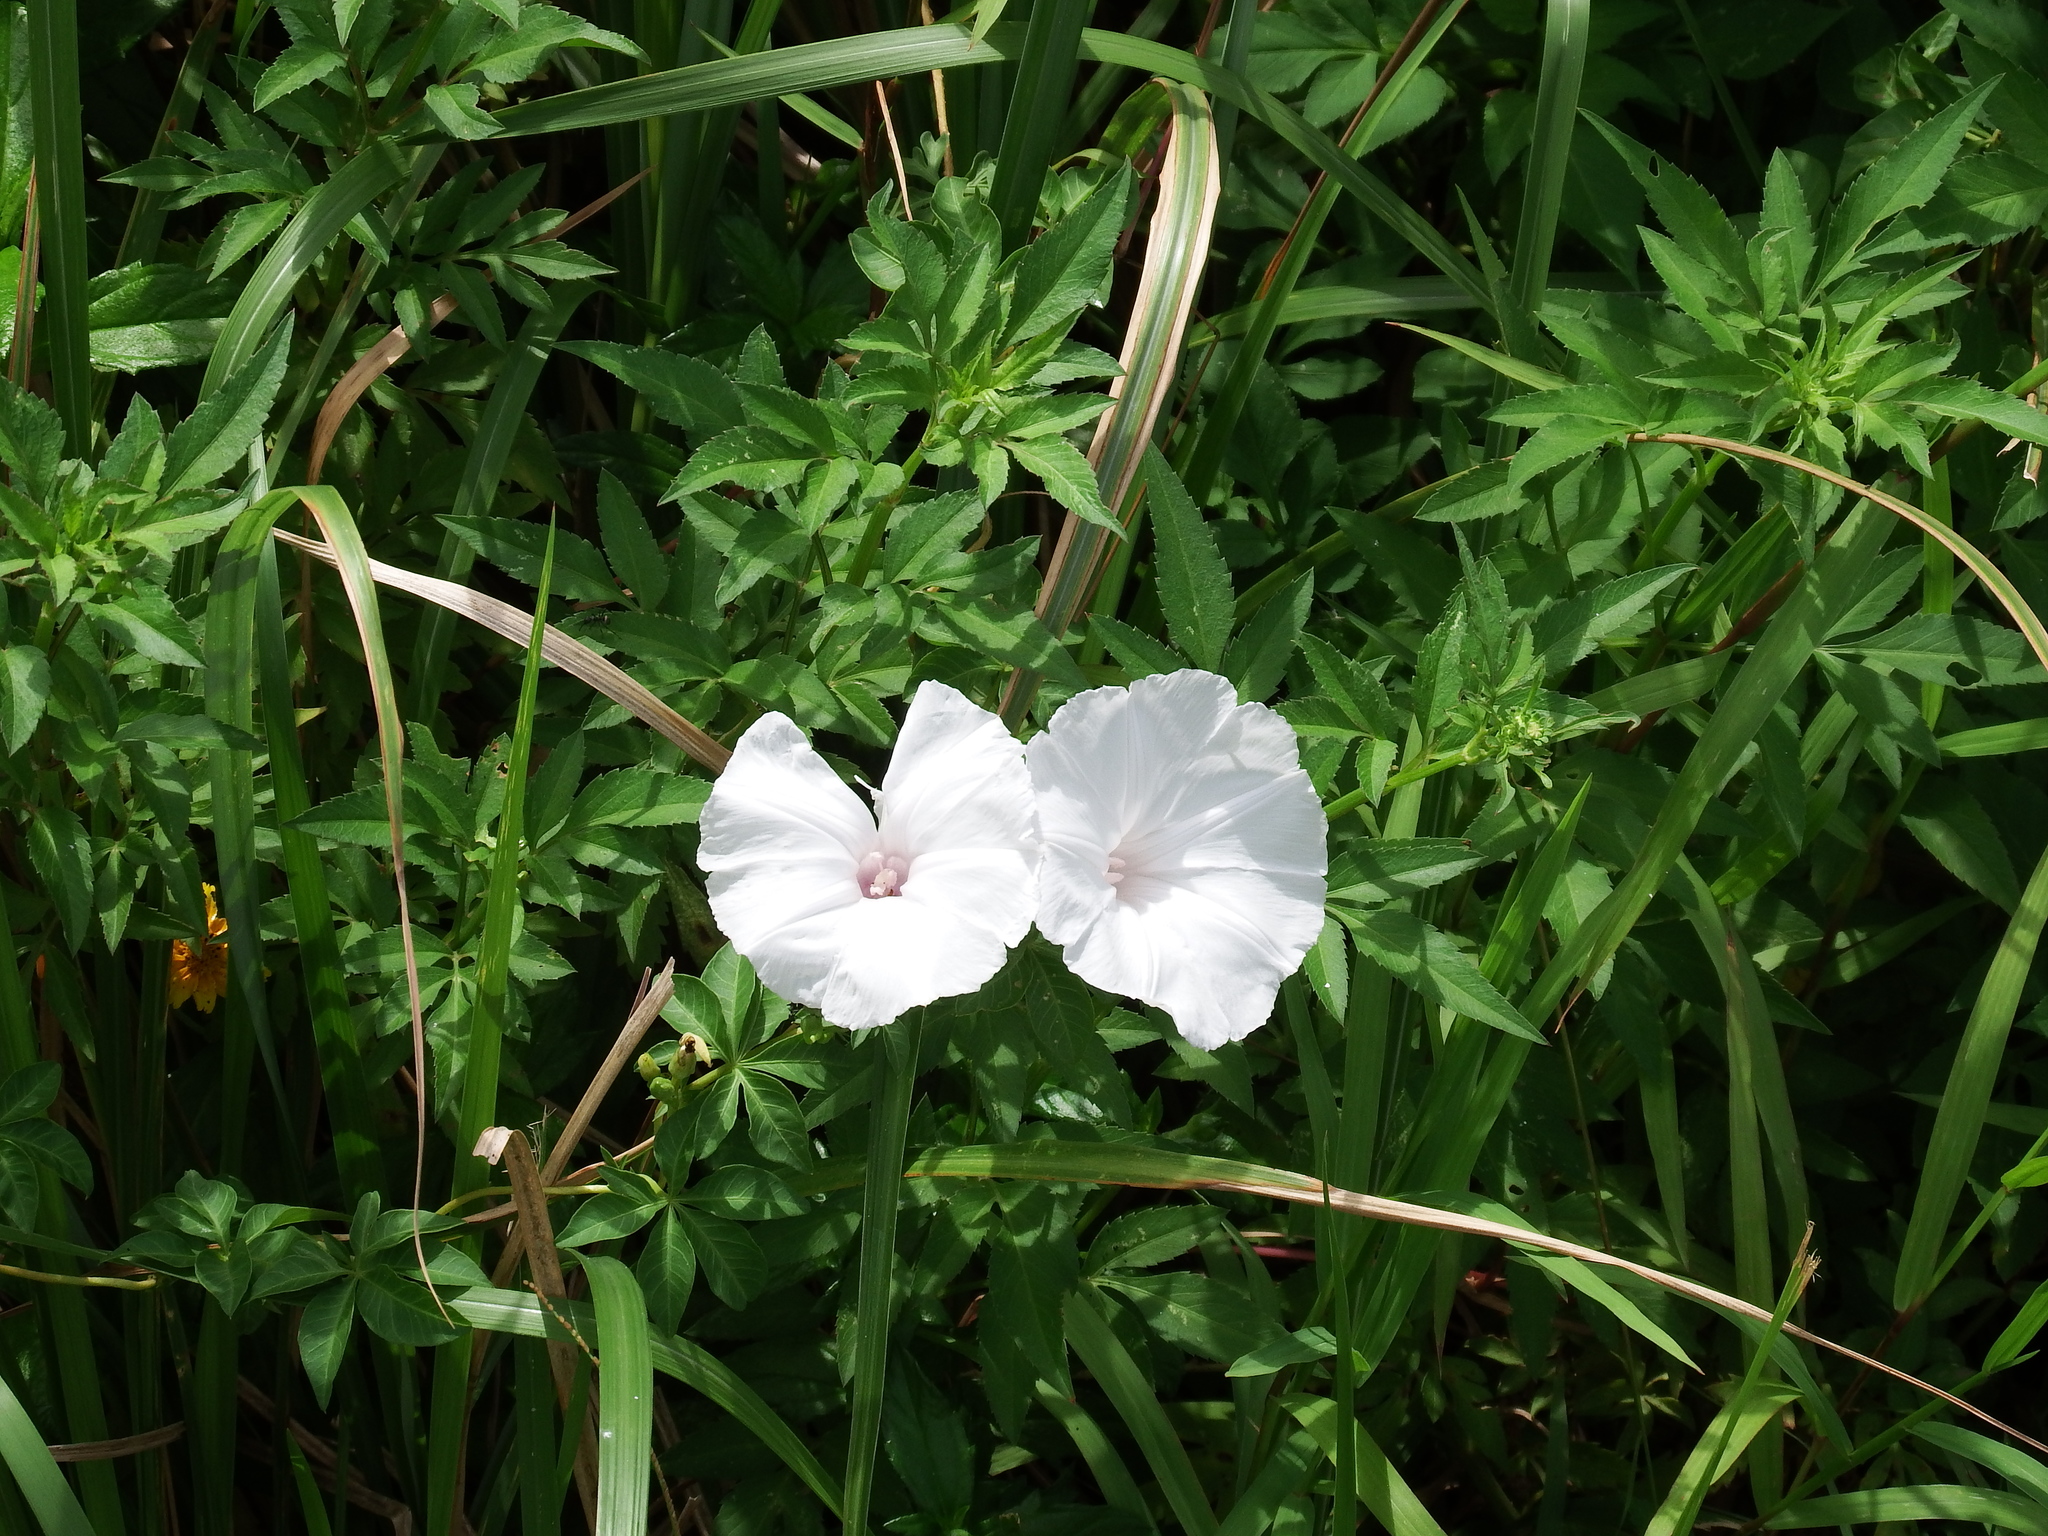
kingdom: Plantae
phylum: Tracheophyta
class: Magnoliopsida
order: Solanales
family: Convolvulaceae
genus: Ipomoea
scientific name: Ipomoea cairica
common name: Mile a minute vine
